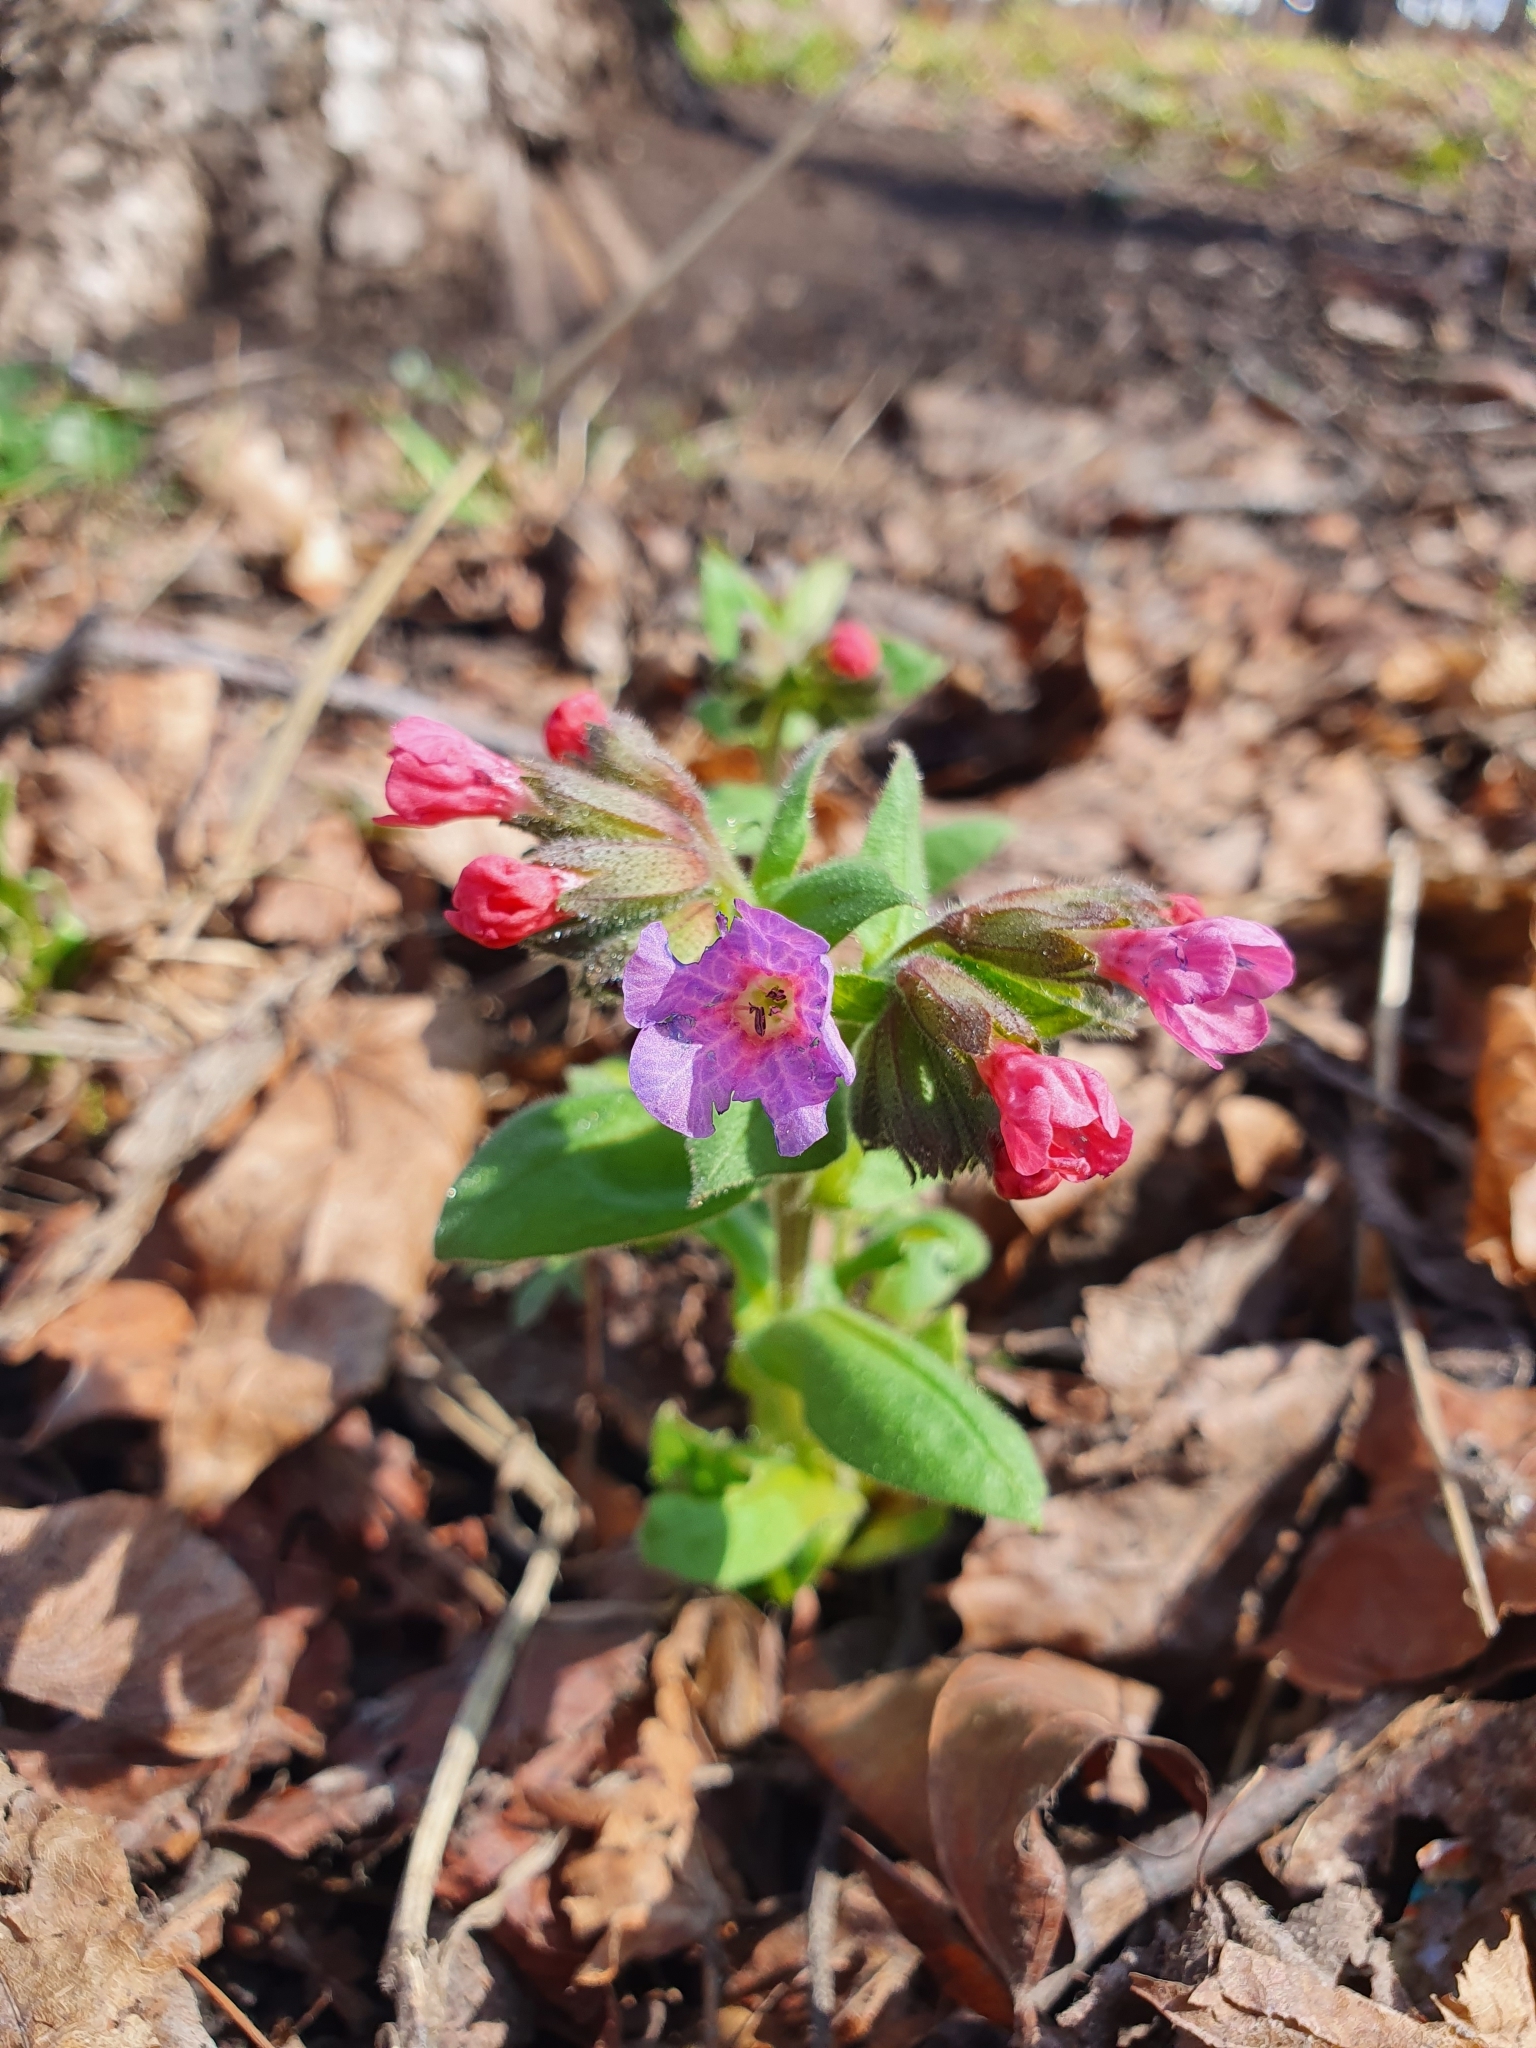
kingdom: Plantae
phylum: Tracheophyta
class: Magnoliopsida
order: Boraginales
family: Boraginaceae
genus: Pulmonaria
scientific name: Pulmonaria obscura
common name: Suffolk lungwort
